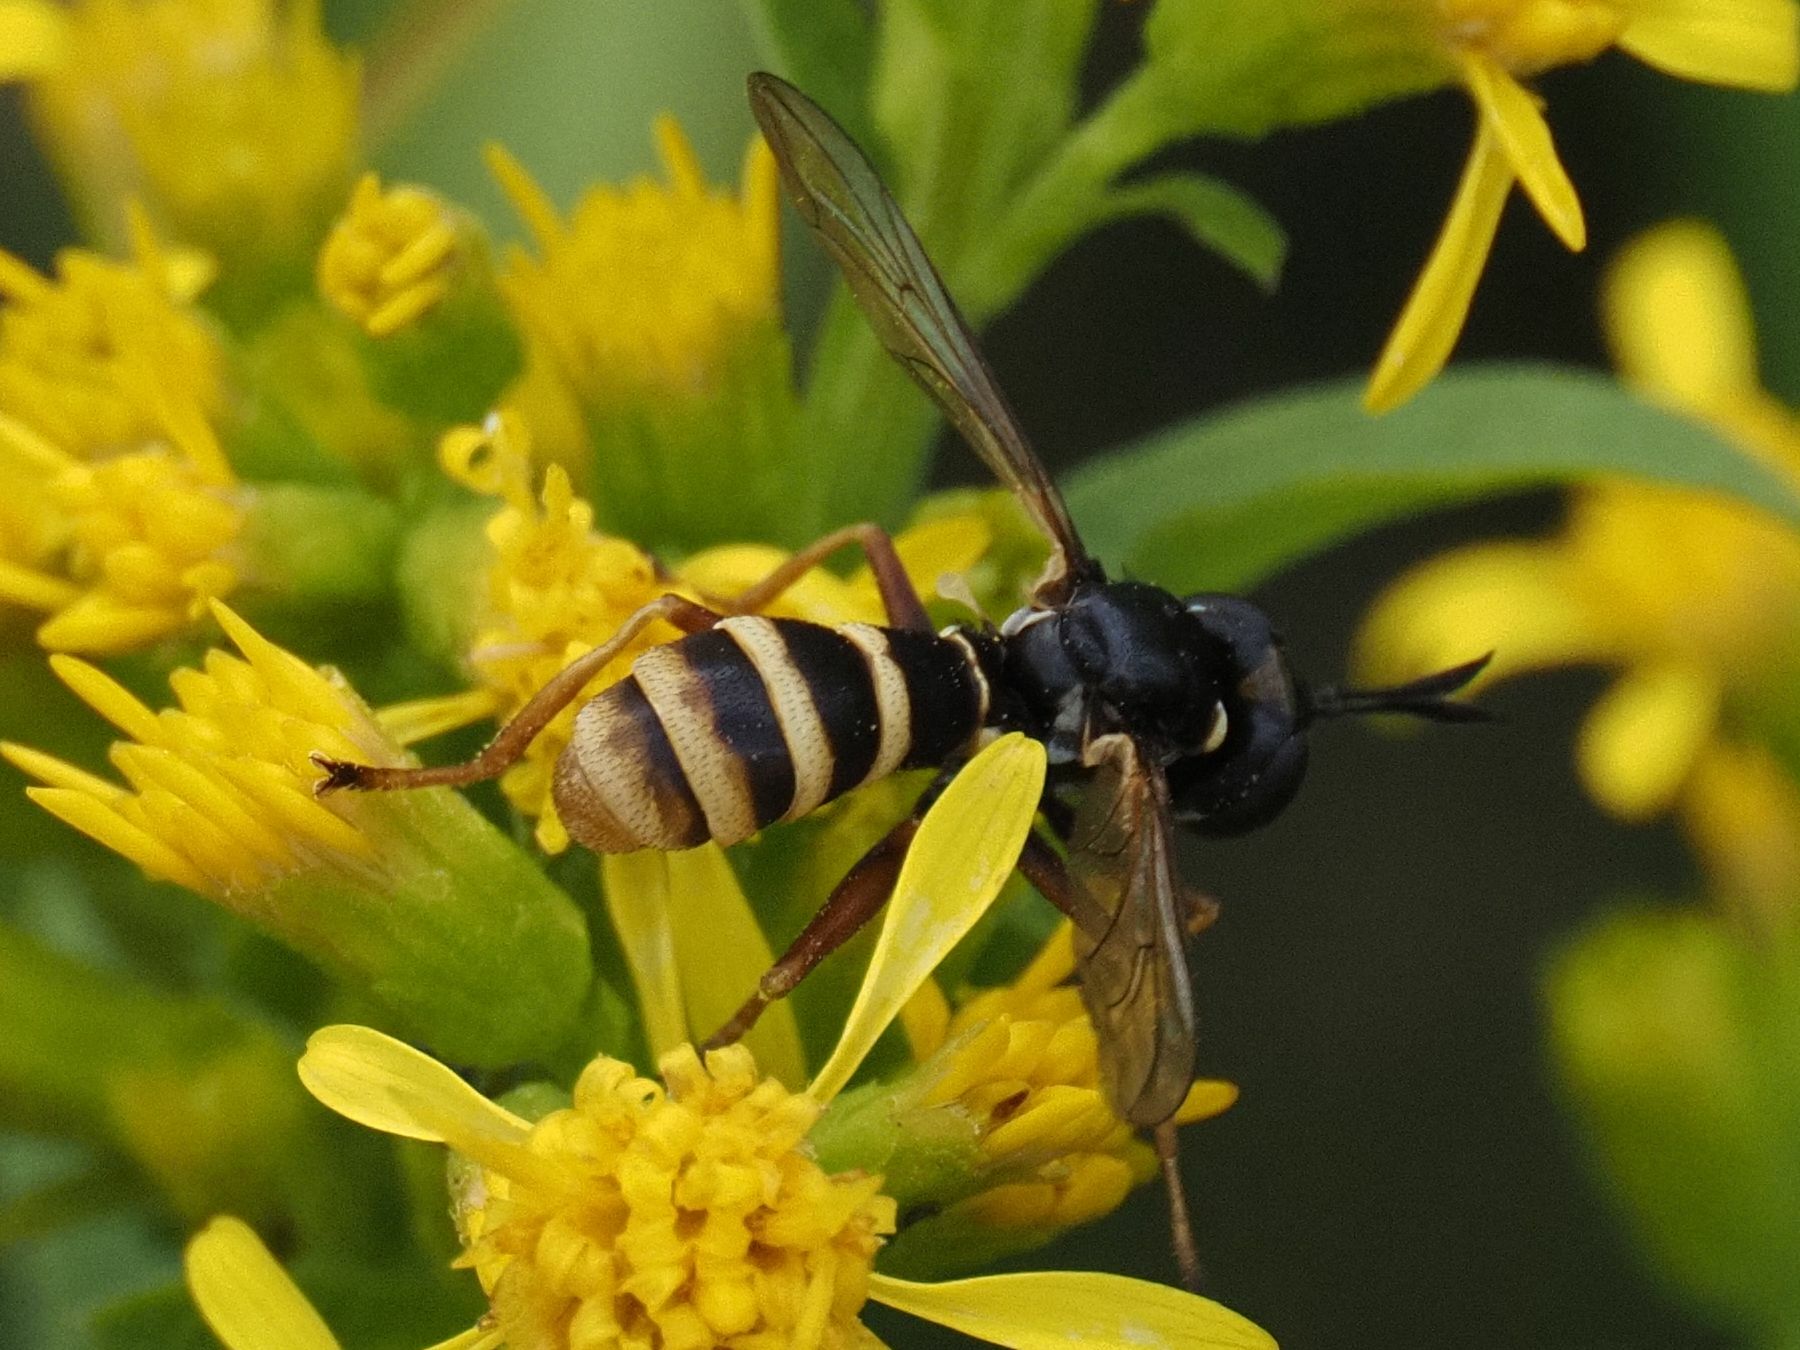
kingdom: Animalia
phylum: Arthropoda
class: Insecta
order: Diptera
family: Conopidae
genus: Conops
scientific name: Conops quadrifasciatus
